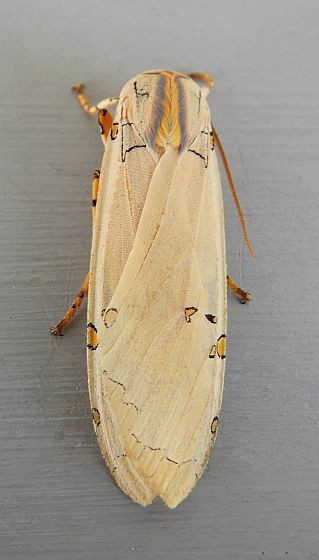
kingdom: Animalia
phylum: Arthropoda
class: Insecta
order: Lepidoptera
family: Erebidae
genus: Halysidota
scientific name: Halysidota davisii
